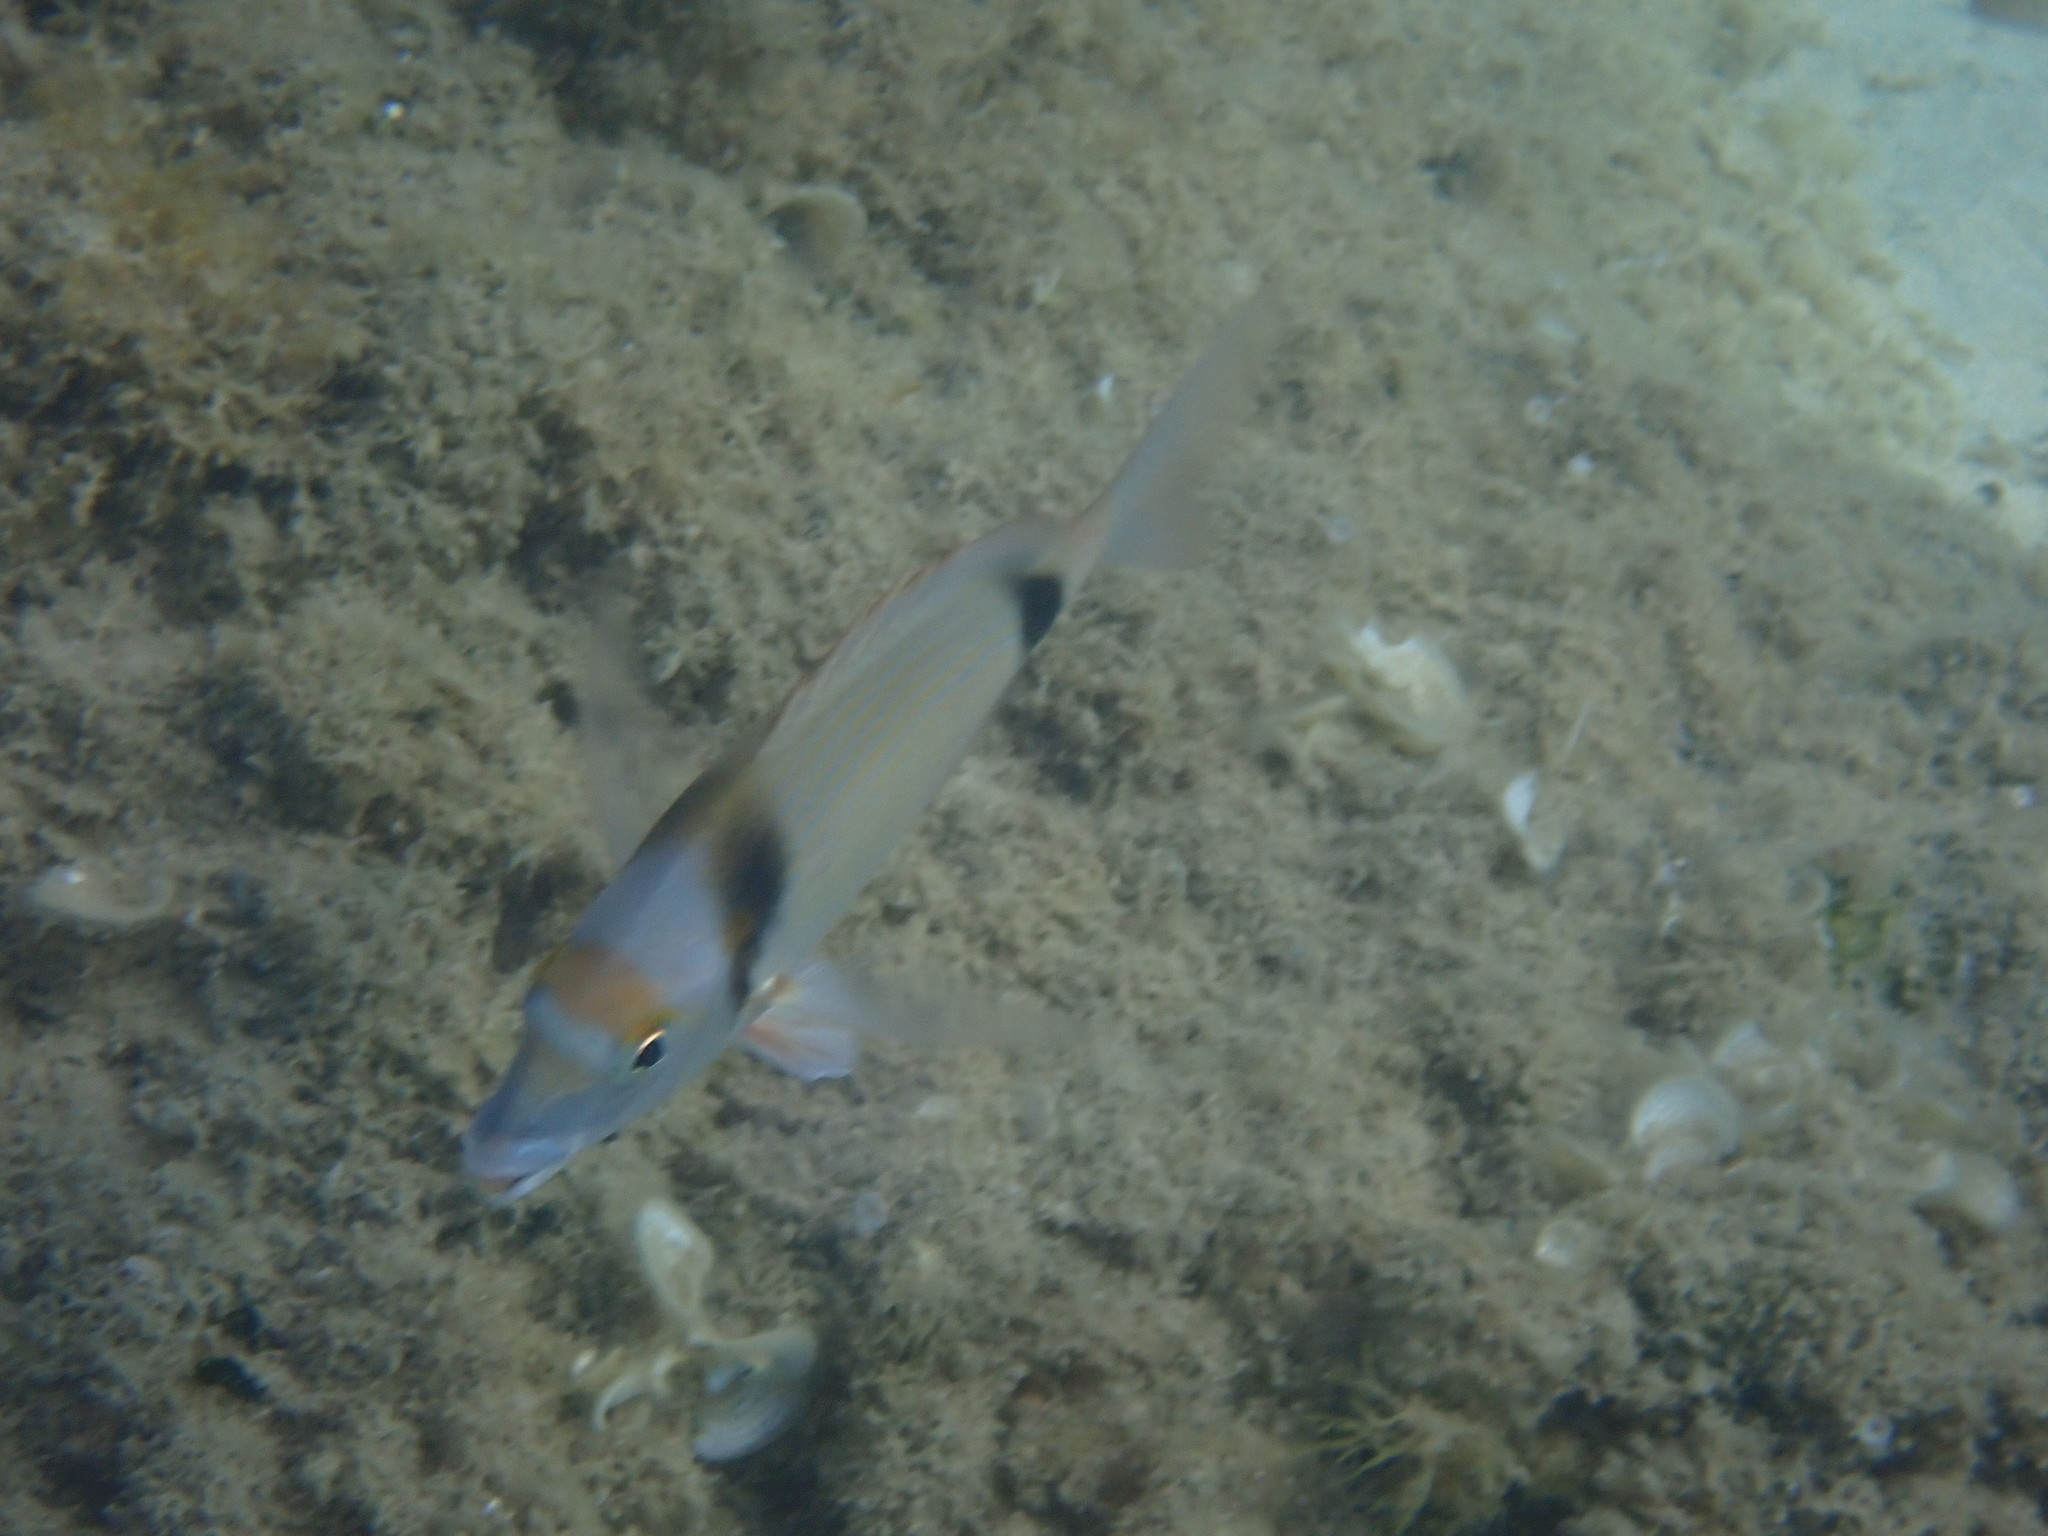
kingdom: Animalia
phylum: Chordata
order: Perciformes
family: Sparidae
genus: Diplodus
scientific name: Diplodus vulgaris
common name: Common two-banded seabream
